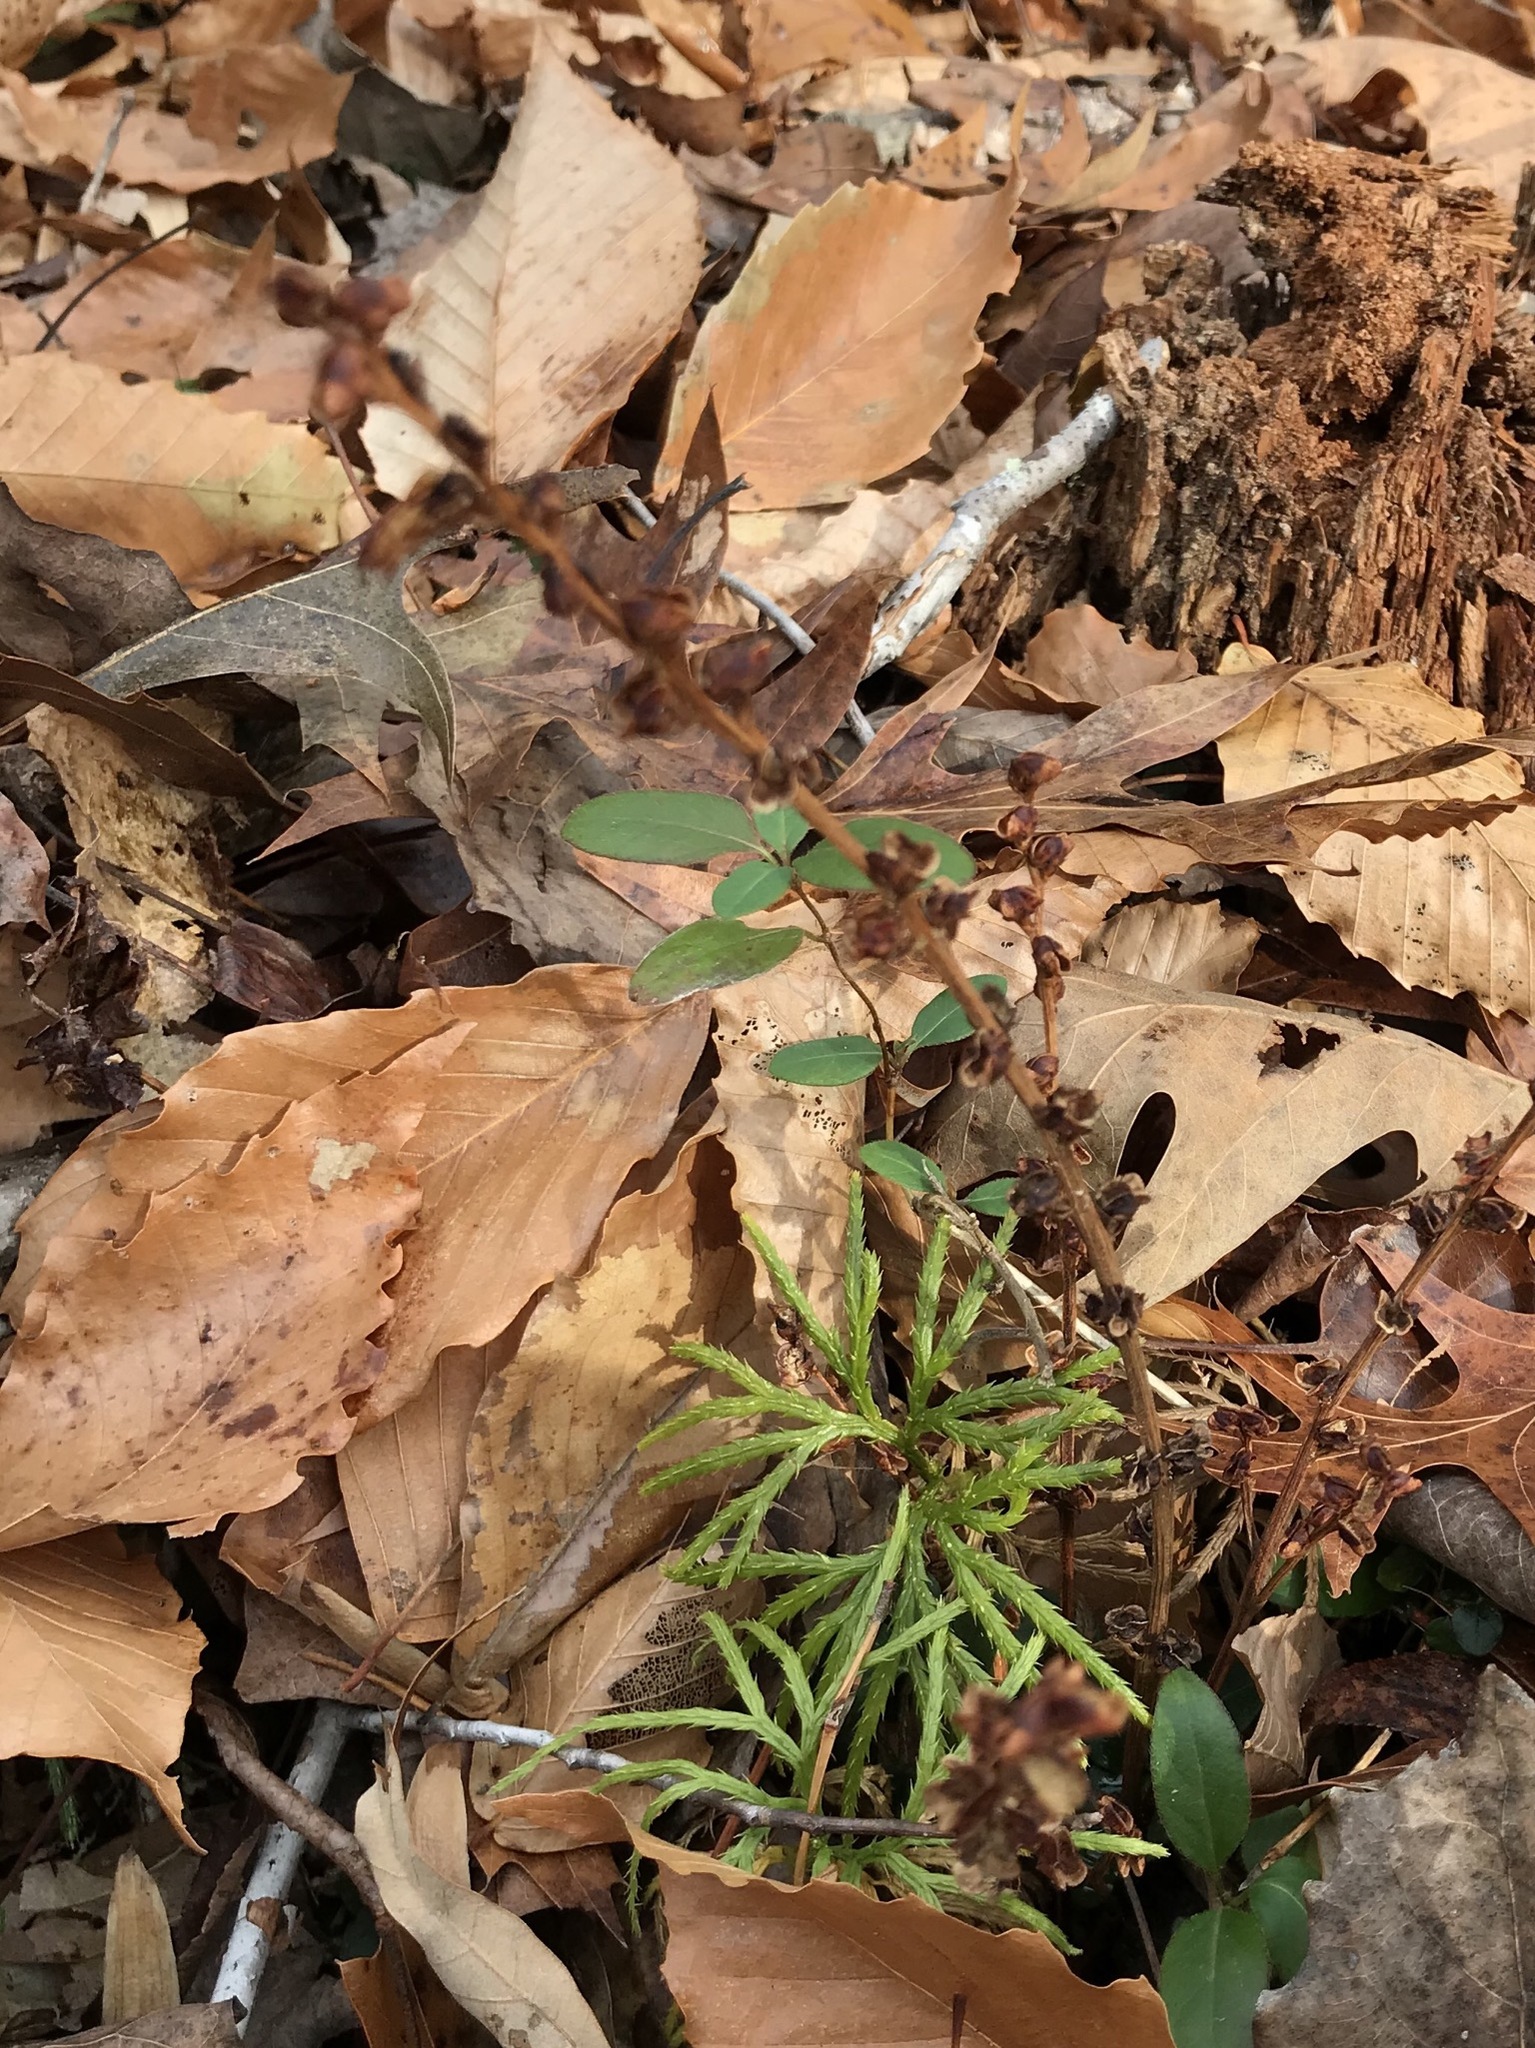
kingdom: Plantae
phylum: Tracheophyta
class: Magnoliopsida
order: Lamiales
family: Orobanchaceae
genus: Epifagus
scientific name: Epifagus virginiana
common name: Beechdrops
